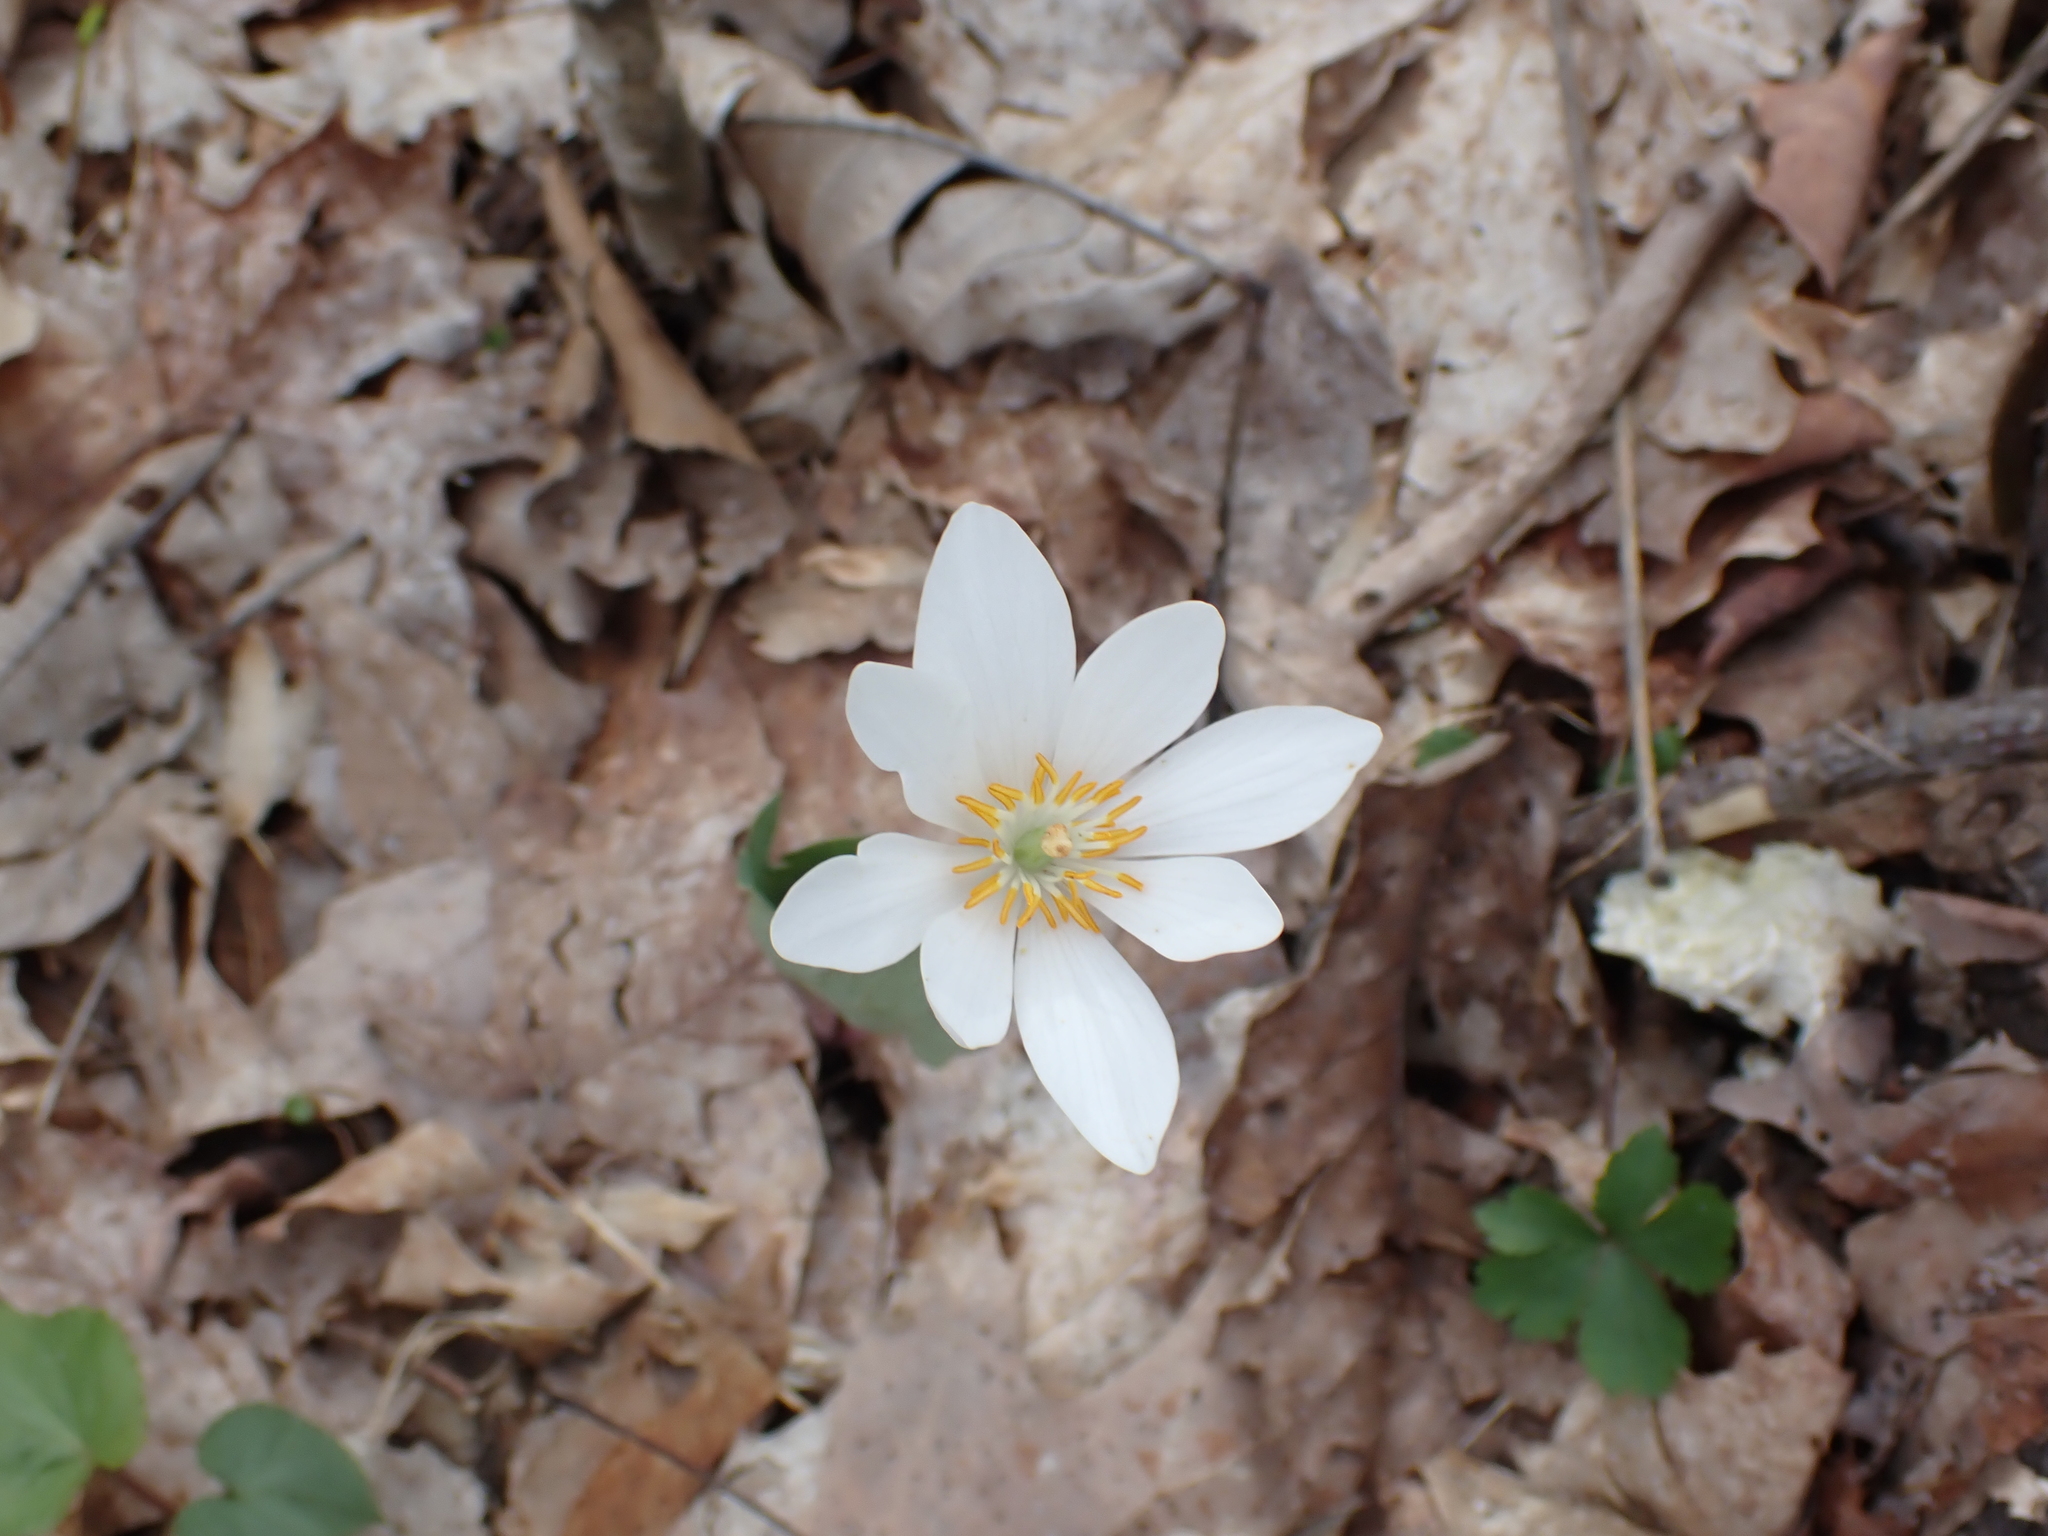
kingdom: Plantae
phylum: Tracheophyta
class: Magnoliopsida
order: Ranunculales
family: Papaveraceae
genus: Sanguinaria
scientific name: Sanguinaria canadensis
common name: Bloodroot
